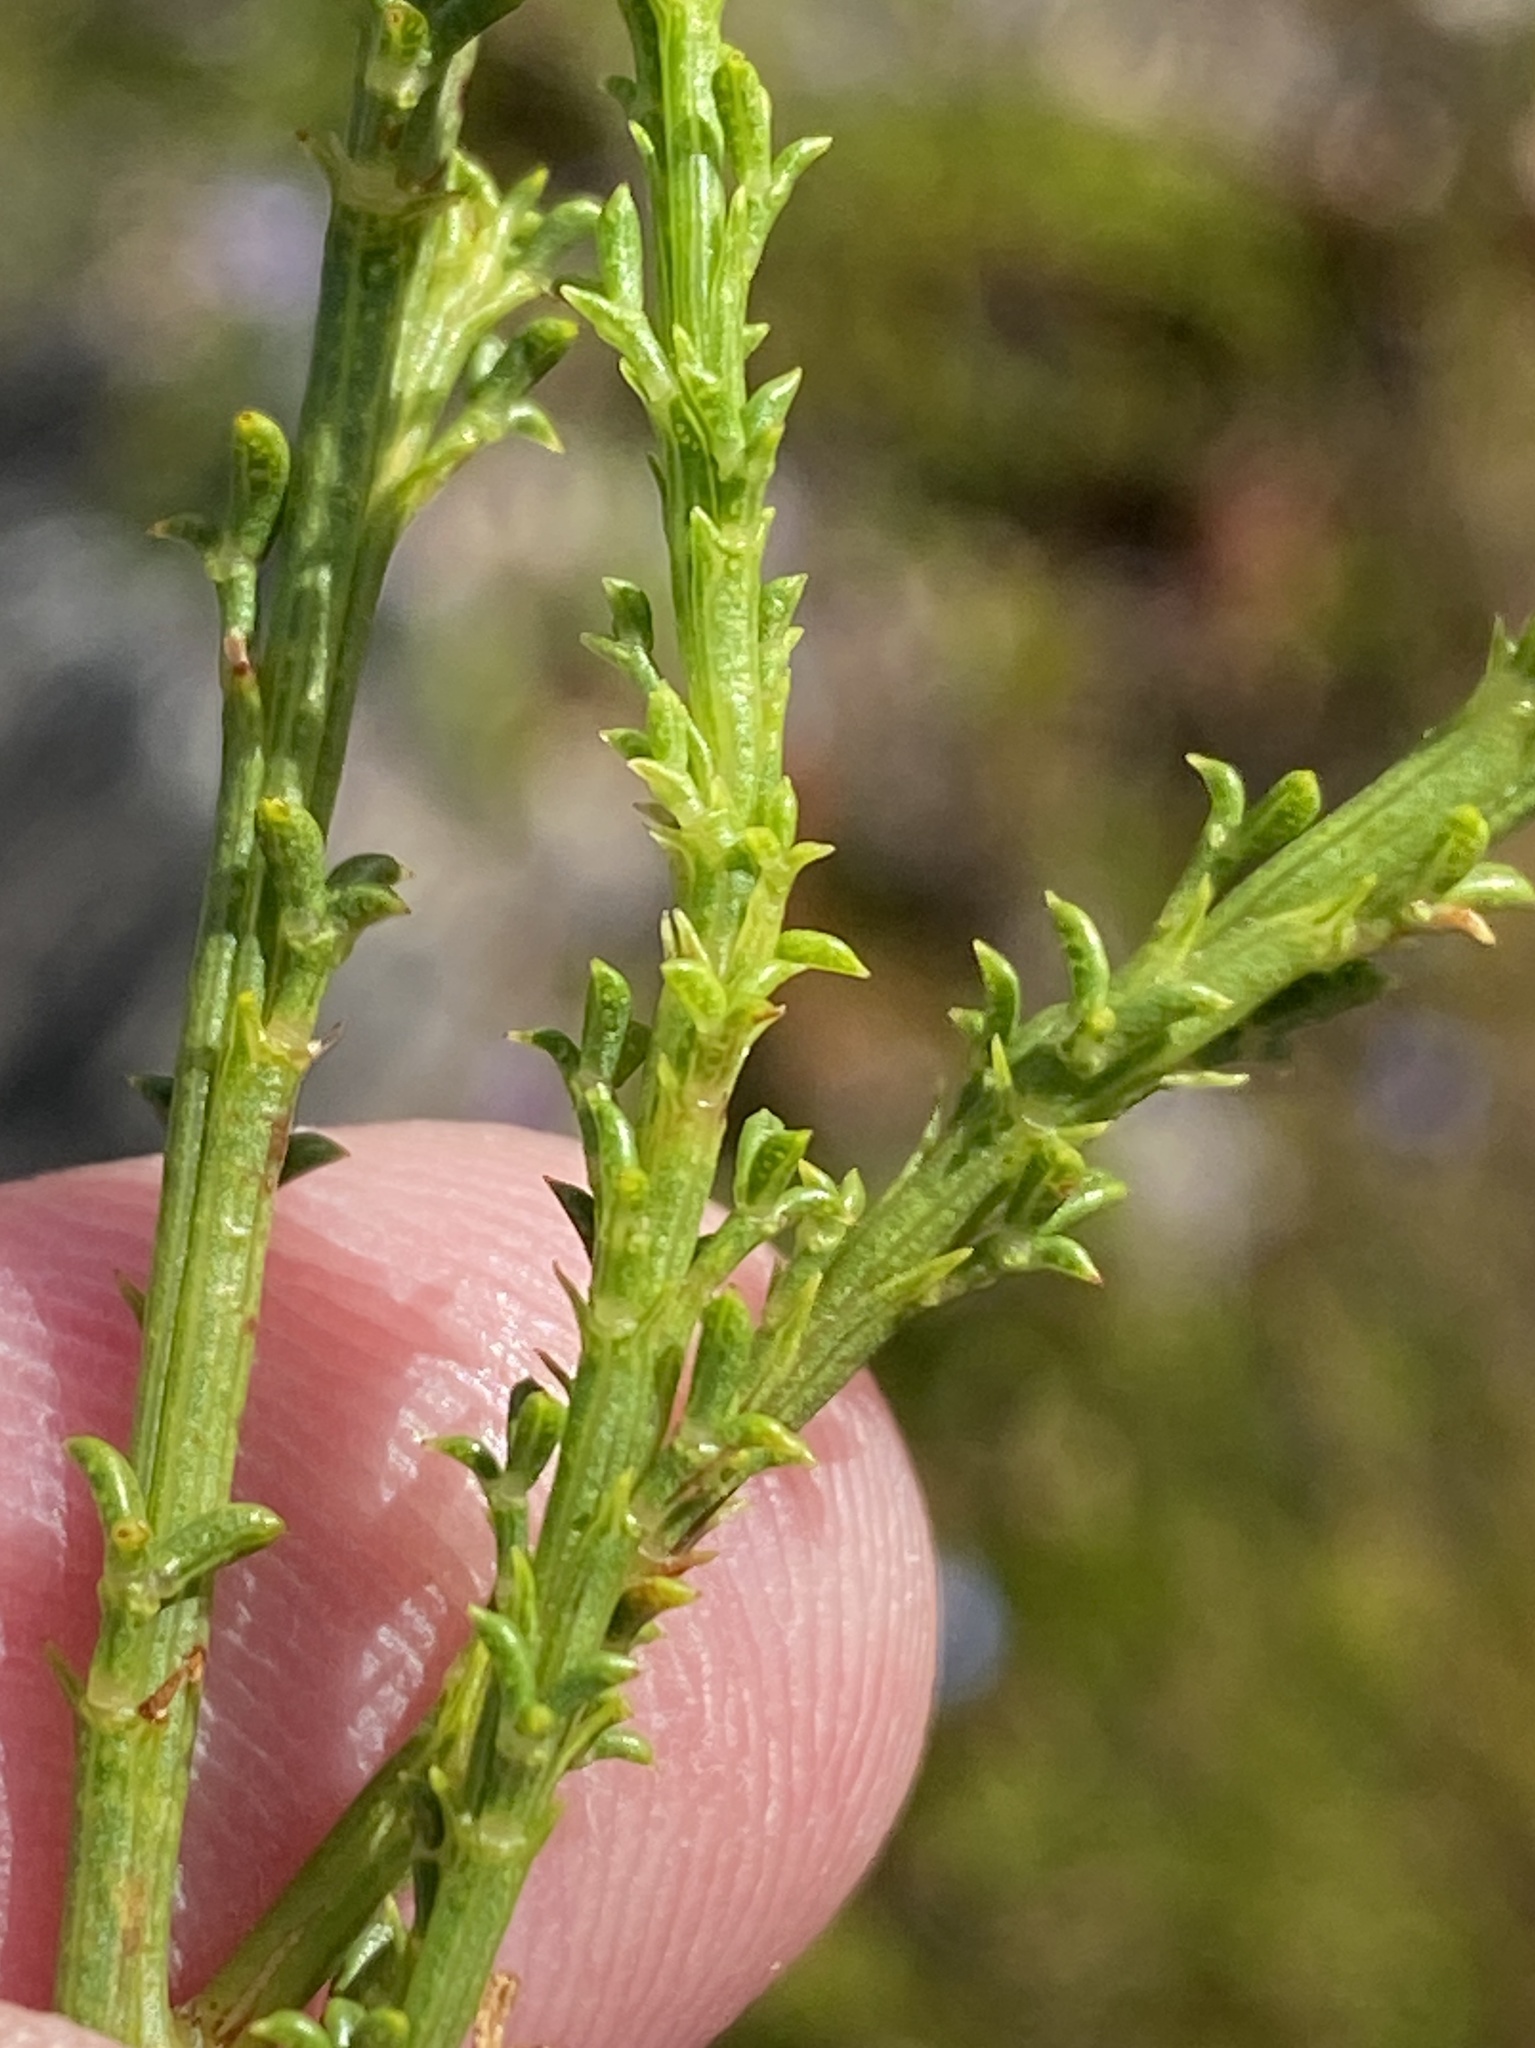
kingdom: Plantae
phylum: Tracheophyta
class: Magnoliopsida
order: Fabales
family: Fabaceae
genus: Psoralea
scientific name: Psoralea aculeata
